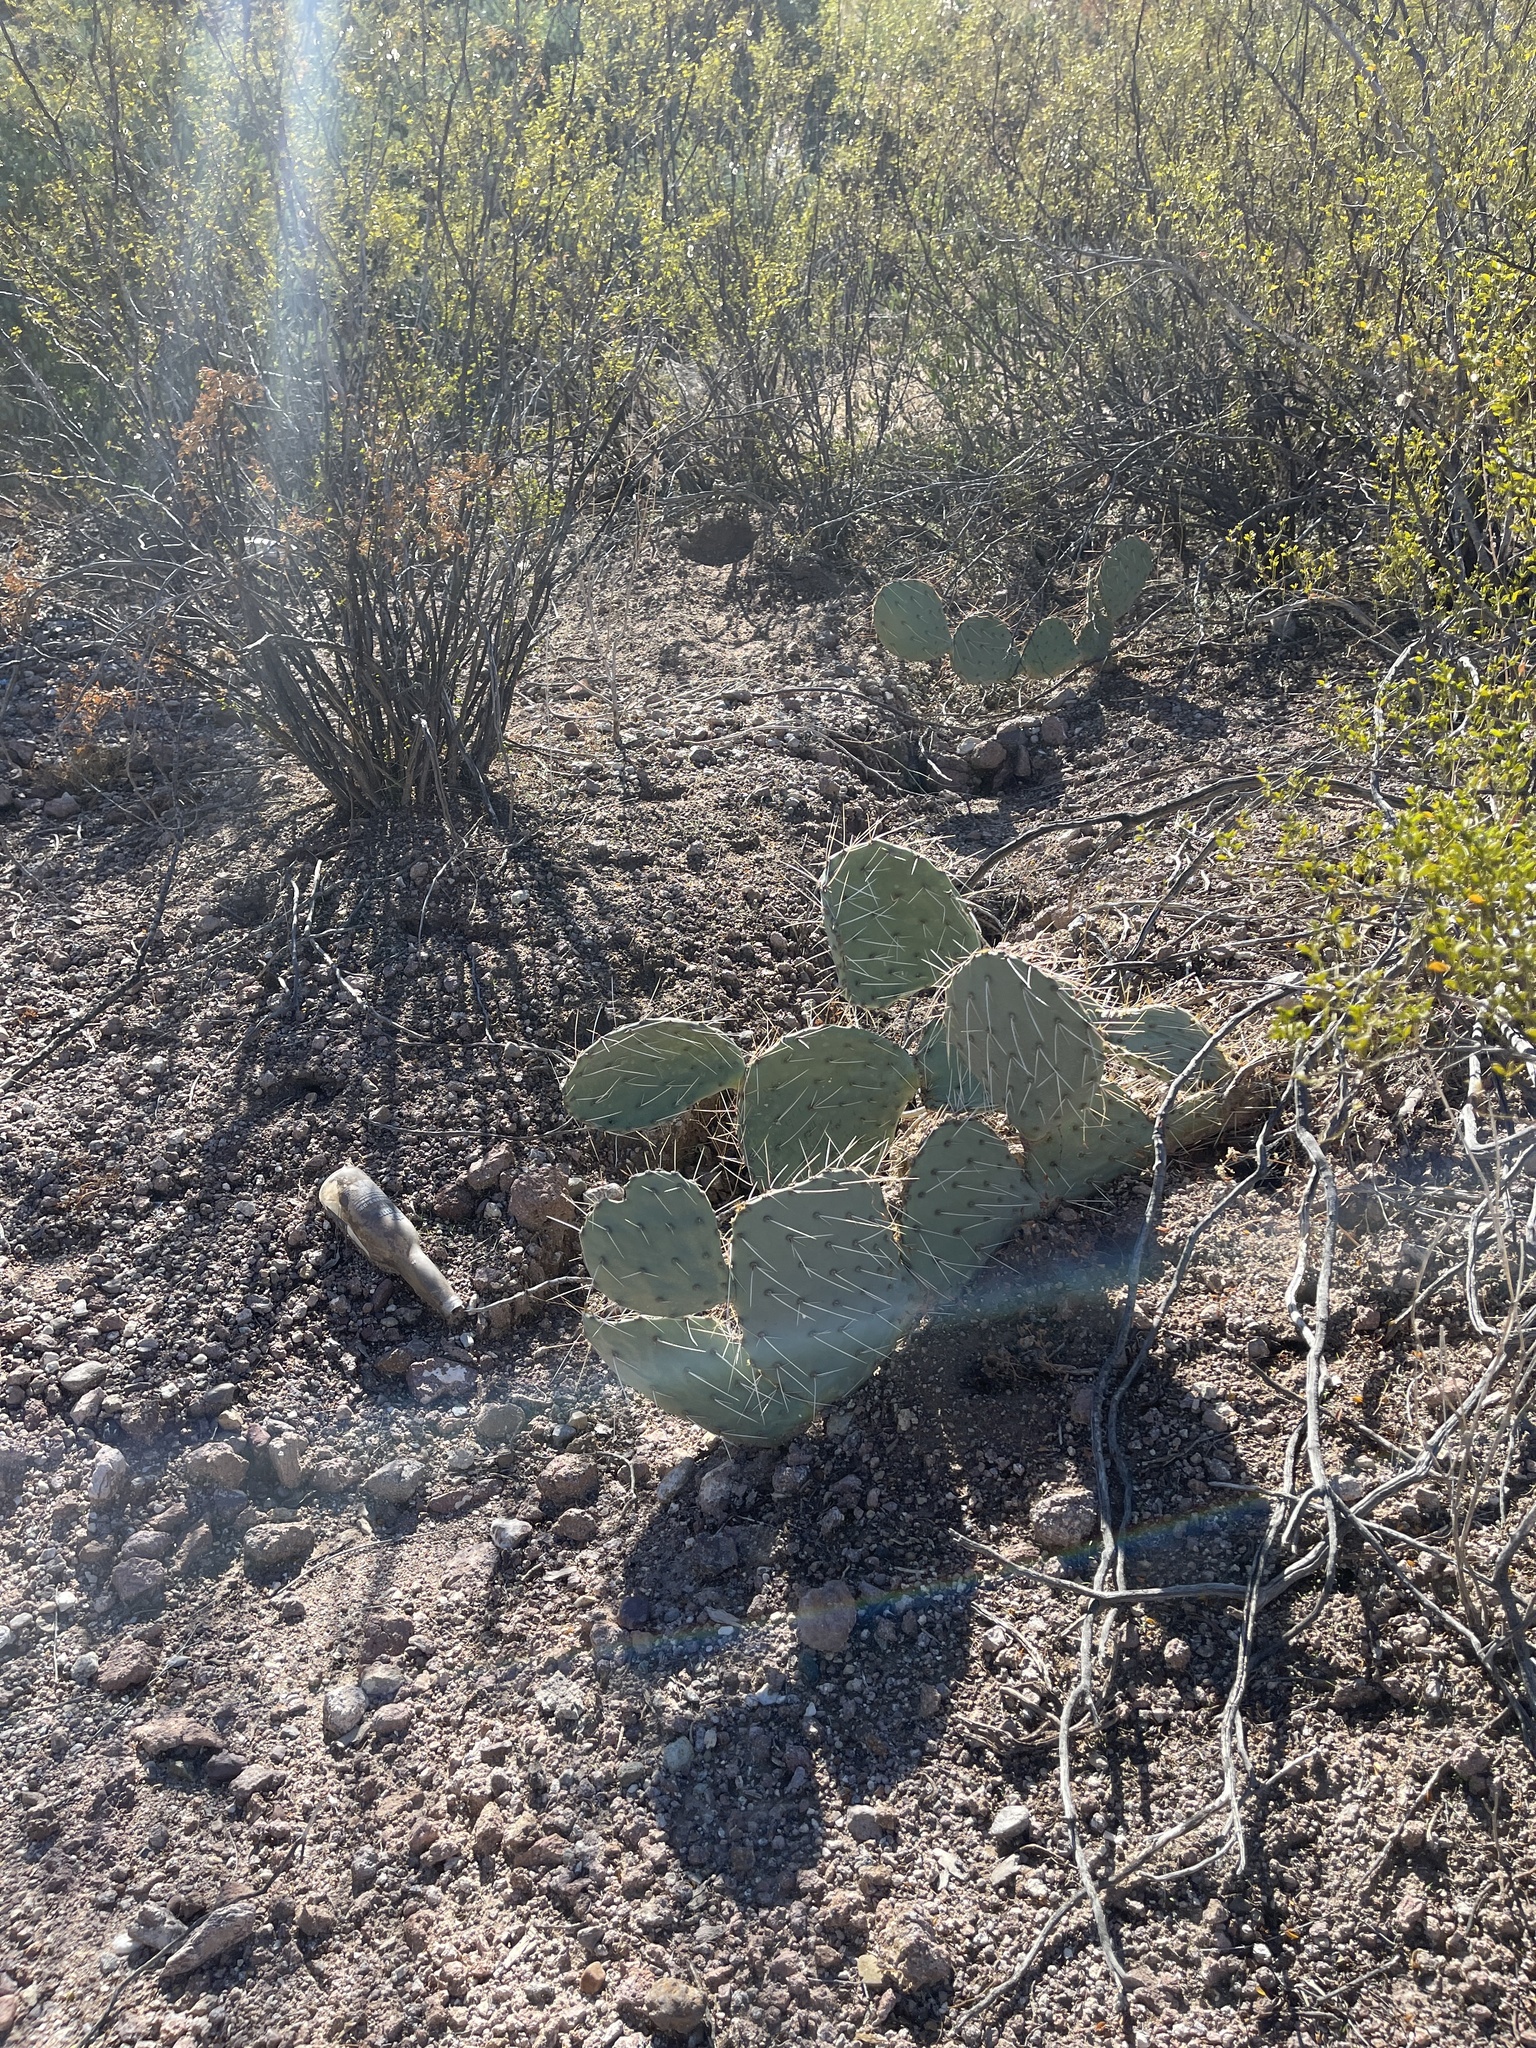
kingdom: Plantae
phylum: Tracheophyta
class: Magnoliopsida
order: Caryophyllales
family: Cactaceae
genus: Opuntia
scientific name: Opuntia phaeacantha
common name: New mexico prickly-pear
